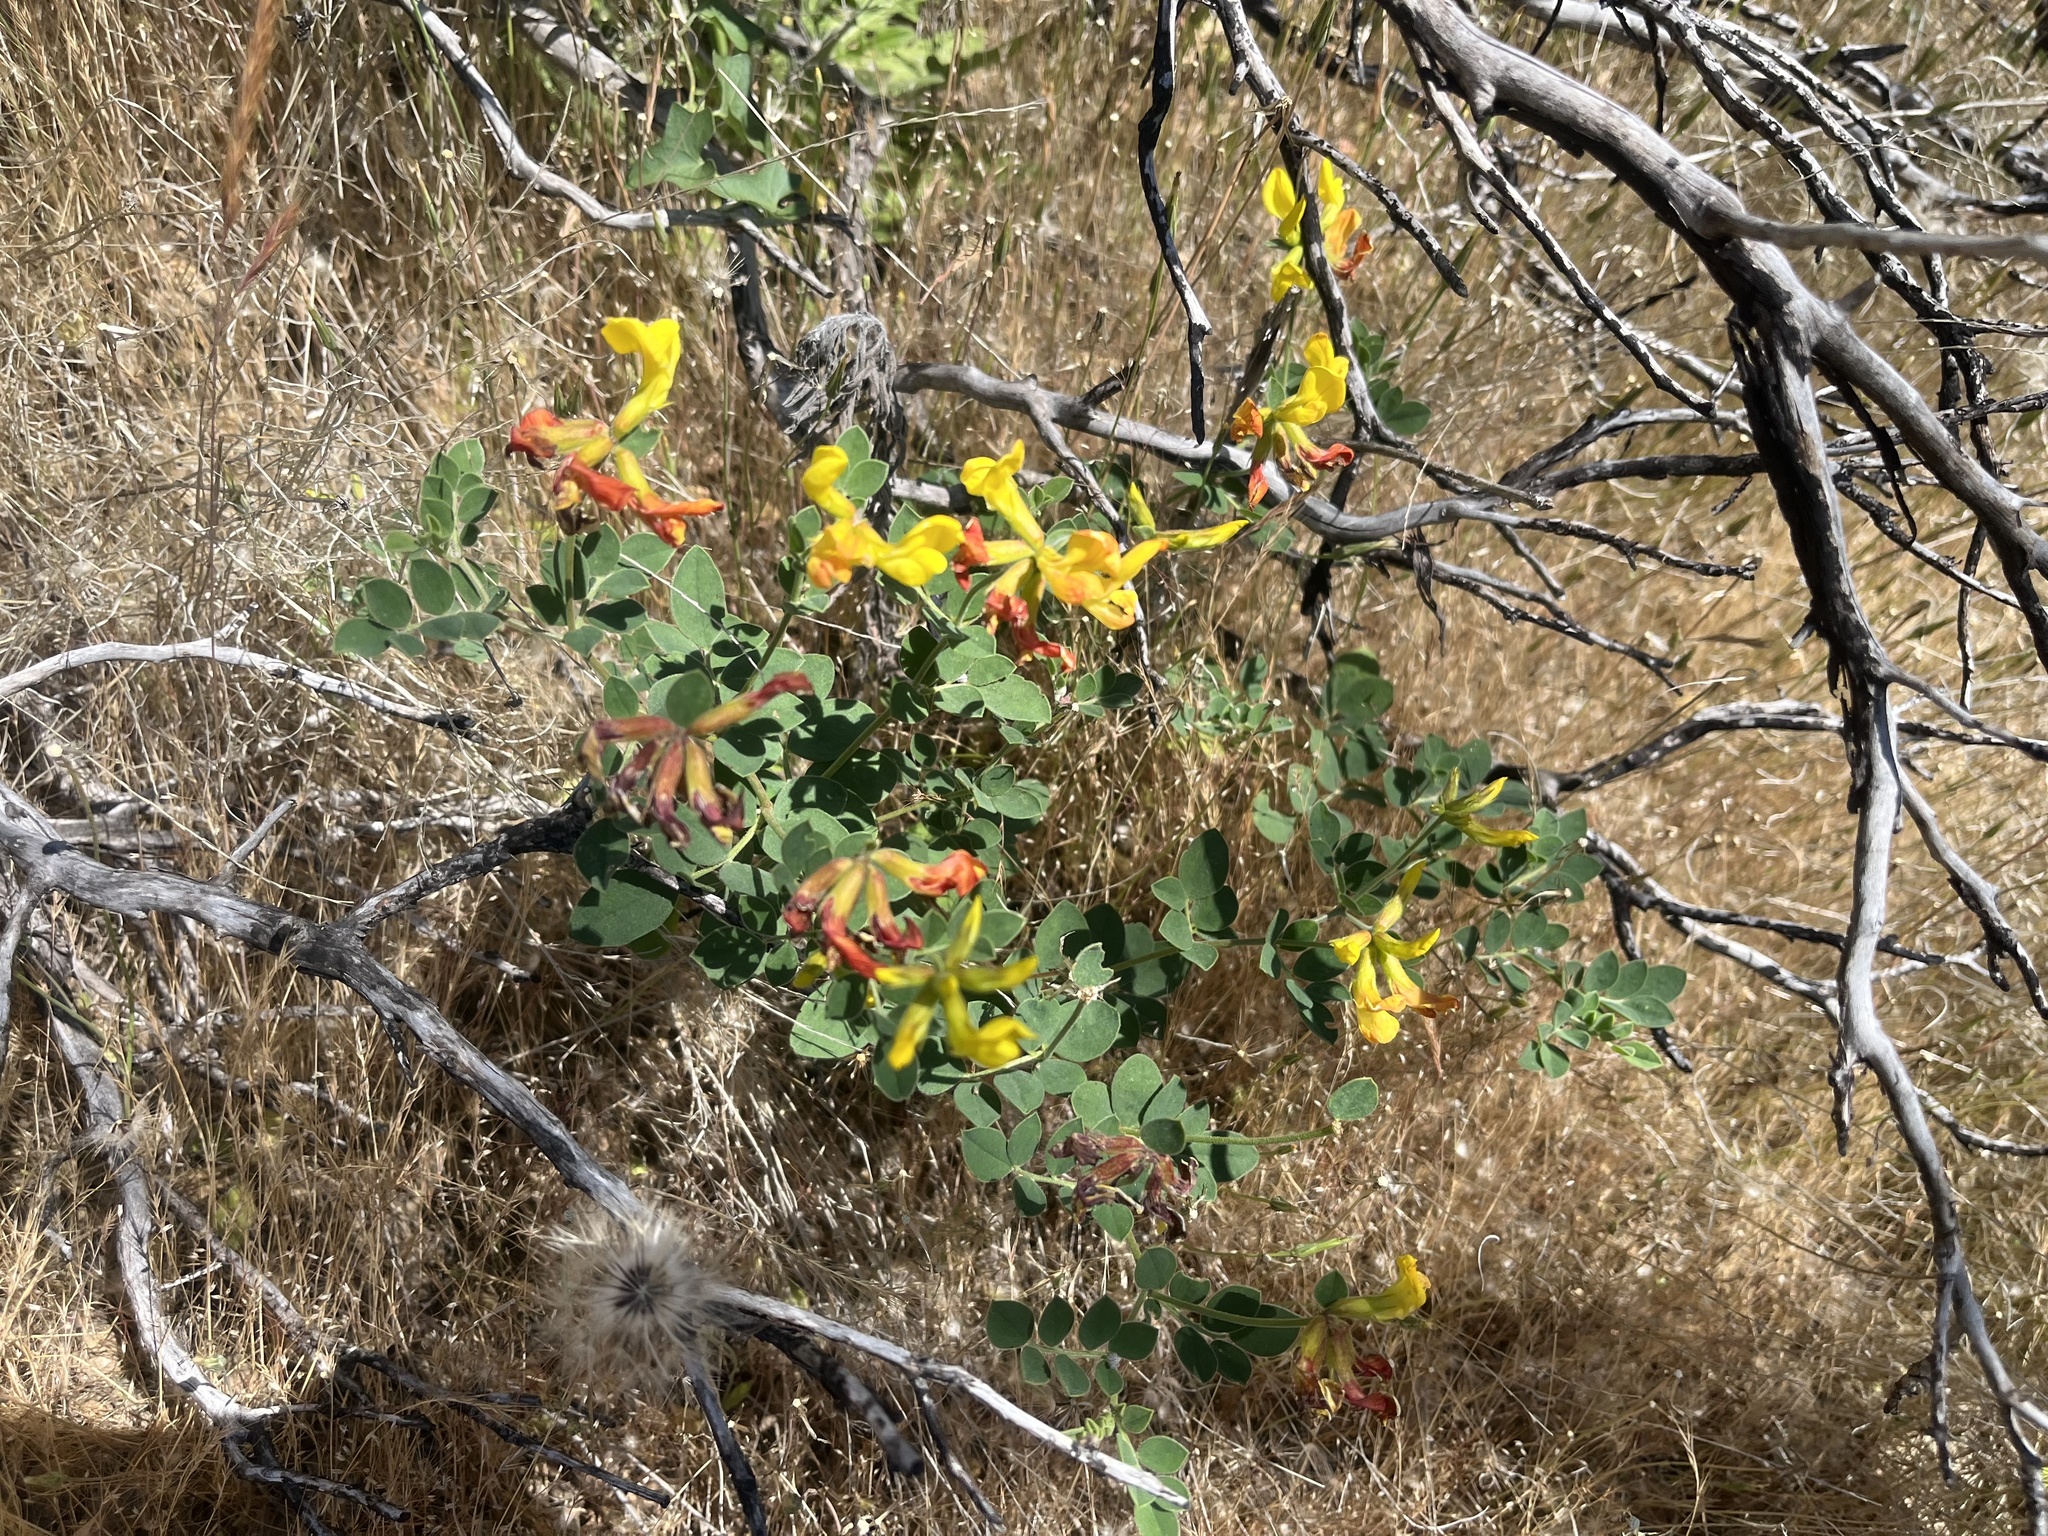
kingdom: Plantae
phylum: Tracheophyta
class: Magnoliopsida
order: Fabales
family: Fabaceae
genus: Acmispon
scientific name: Acmispon grandiflorus
